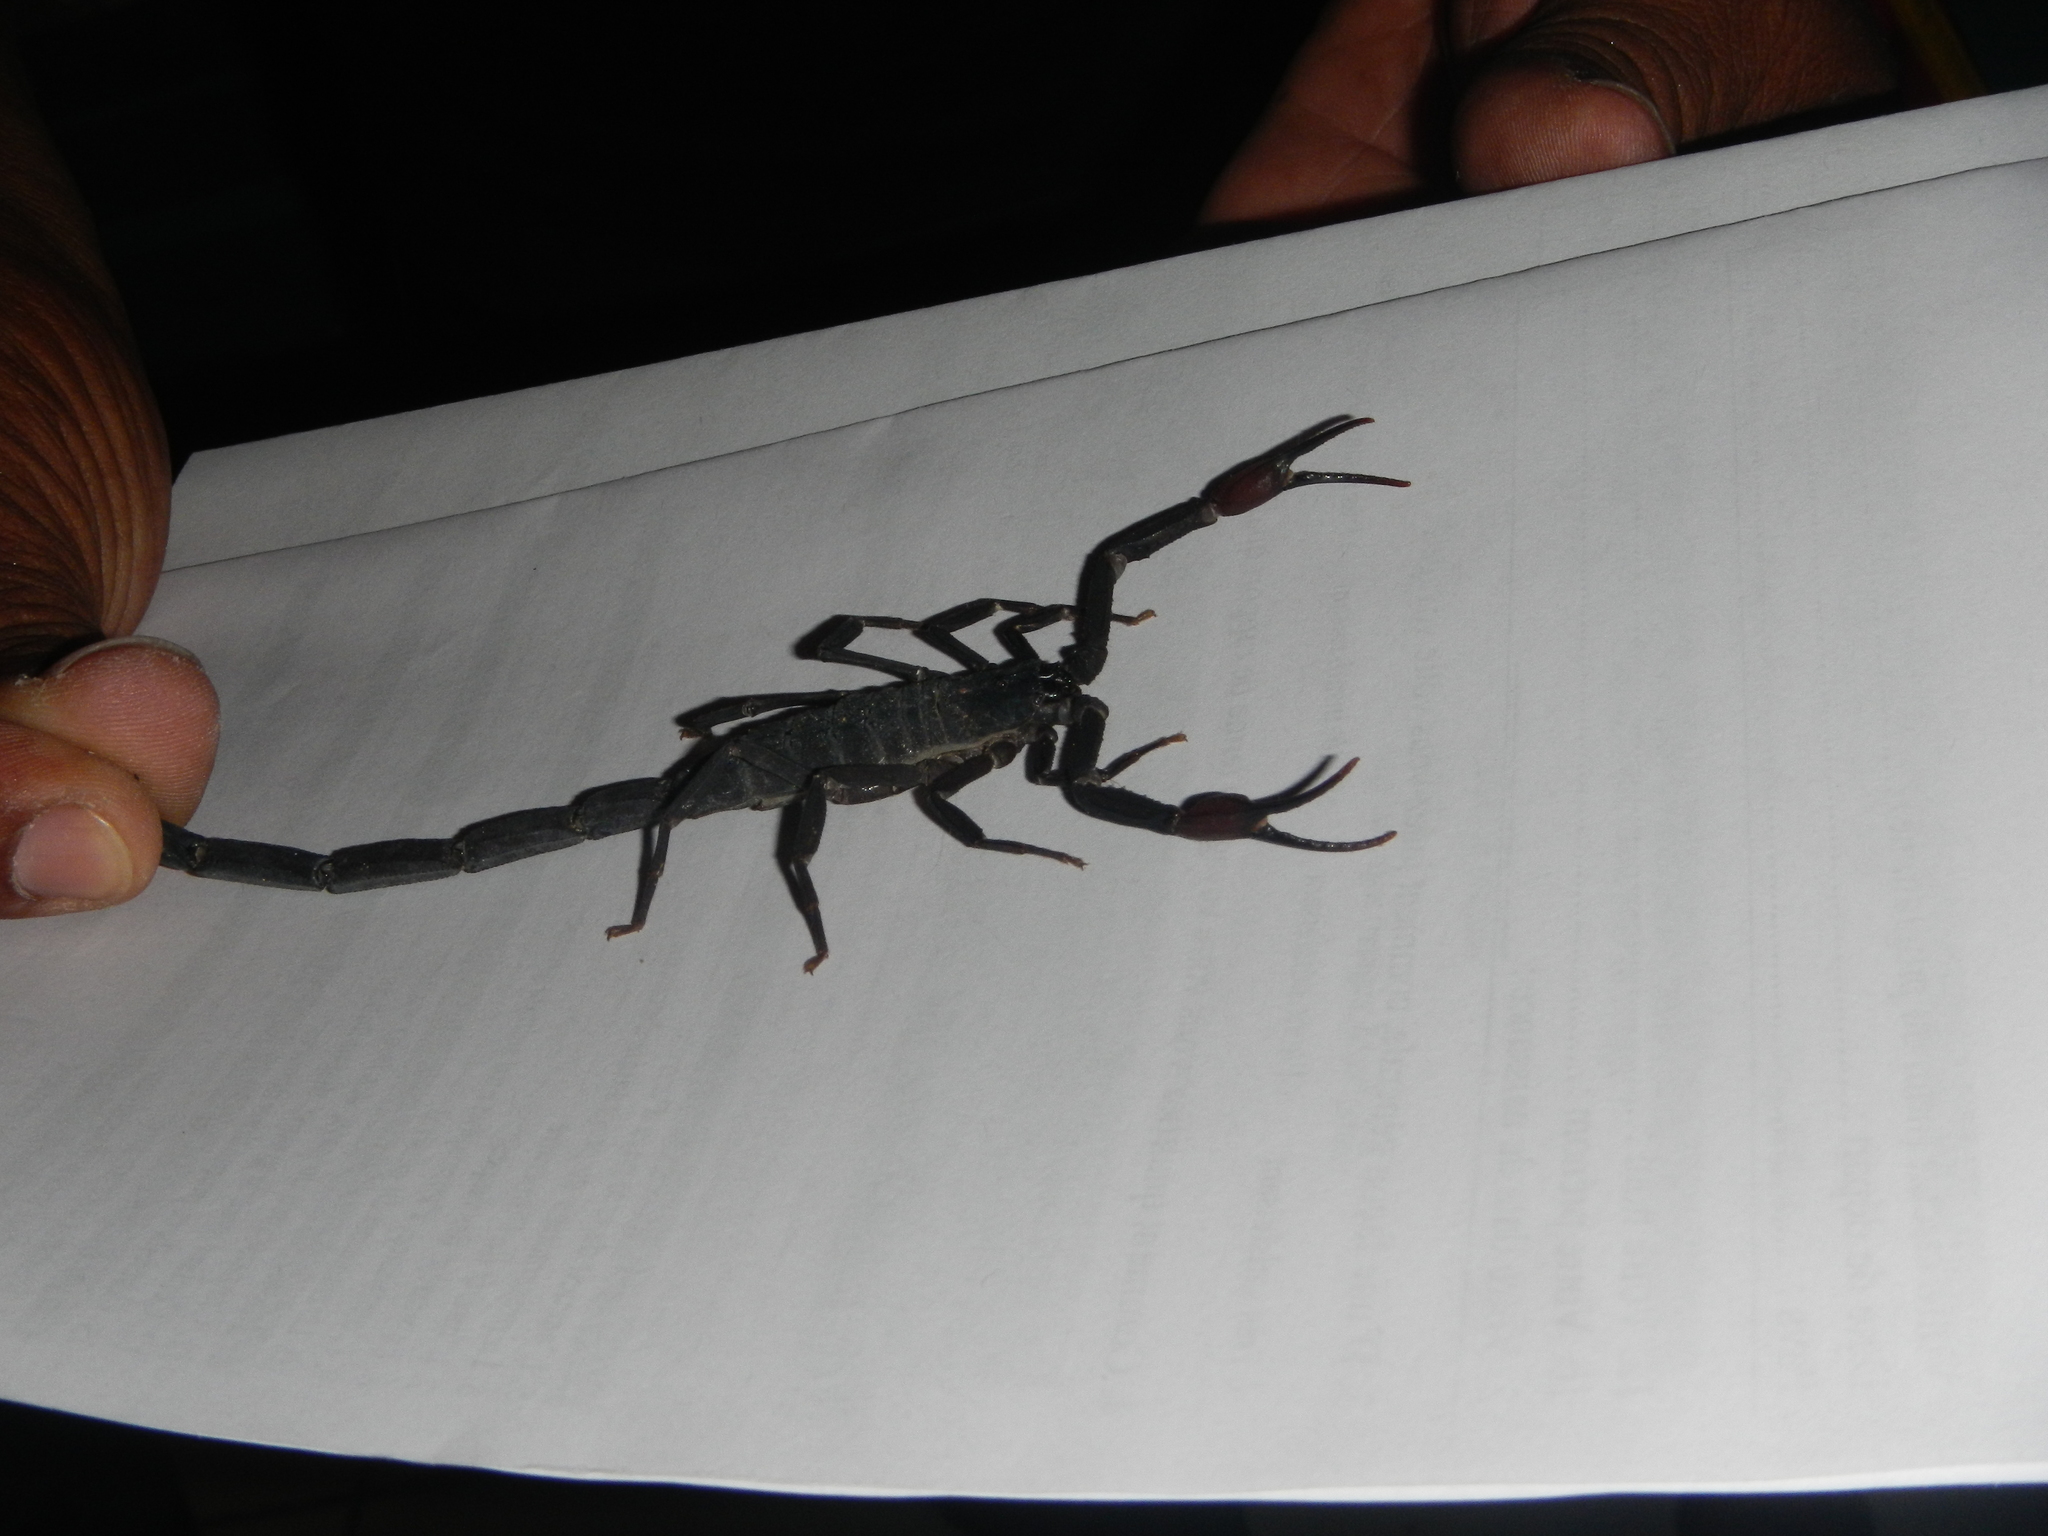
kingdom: Animalia
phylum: Arthropoda
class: Arachnida
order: Scorpiones
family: Buthidae
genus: Centruroides
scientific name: Centruroides gracilis
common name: Scorpions
